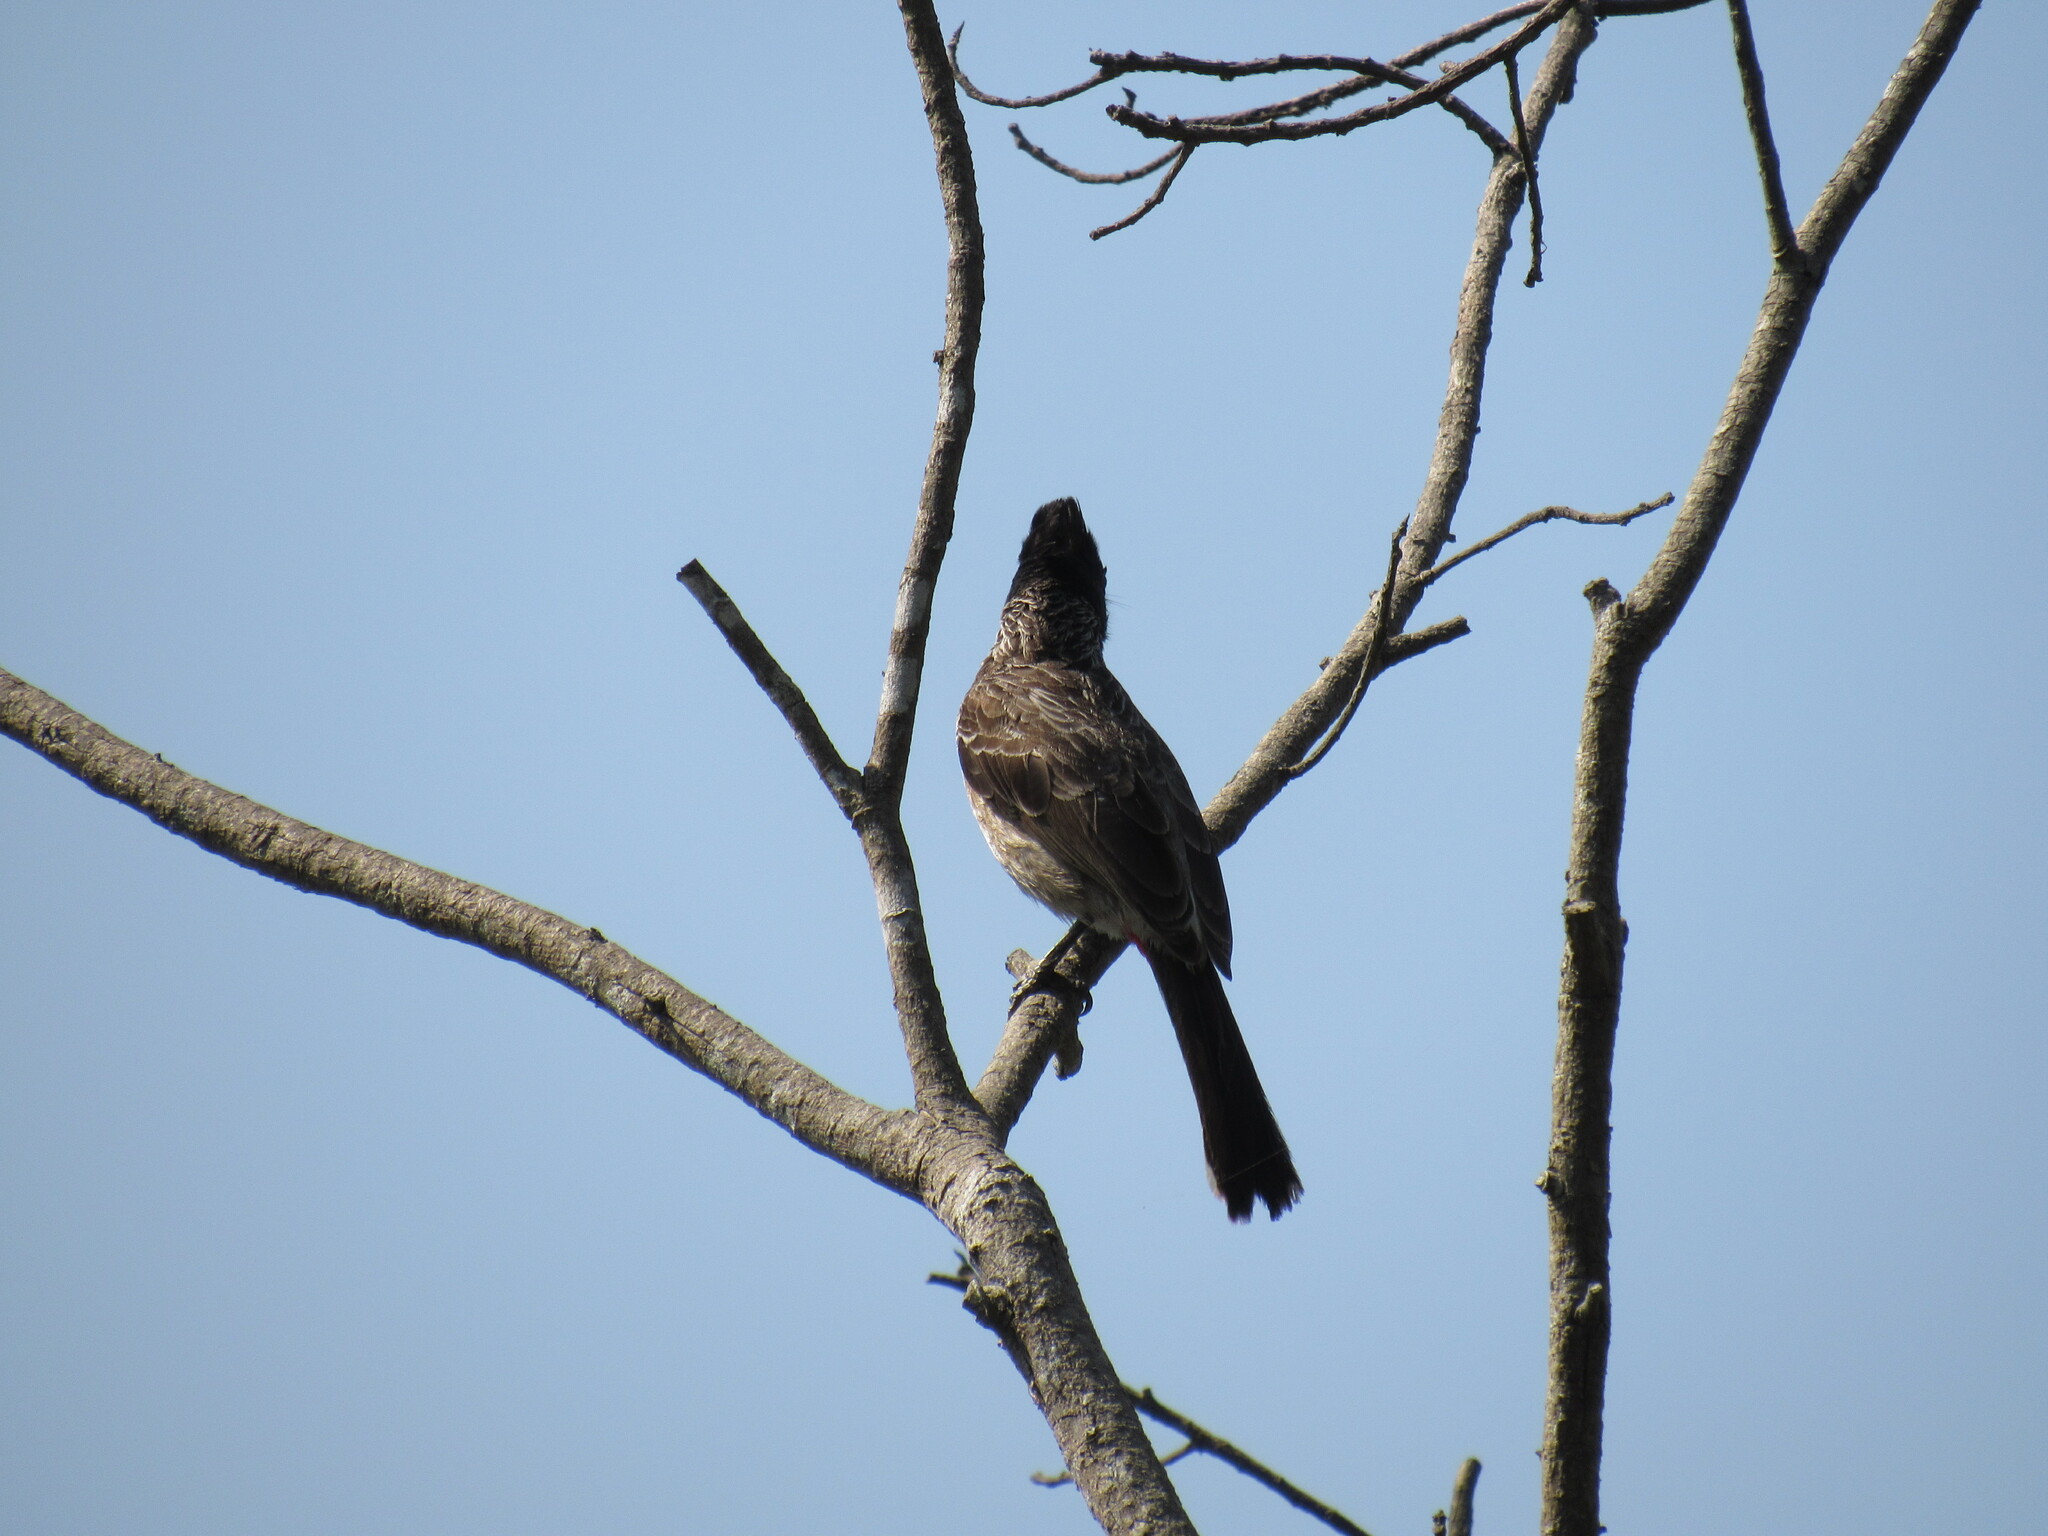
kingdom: Animalia
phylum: Chordata
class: Aves
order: Passeriformes
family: Pycnonotidae
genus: Pycnonotus
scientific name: Pycnonotus cafer
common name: Red-vented bulbul
